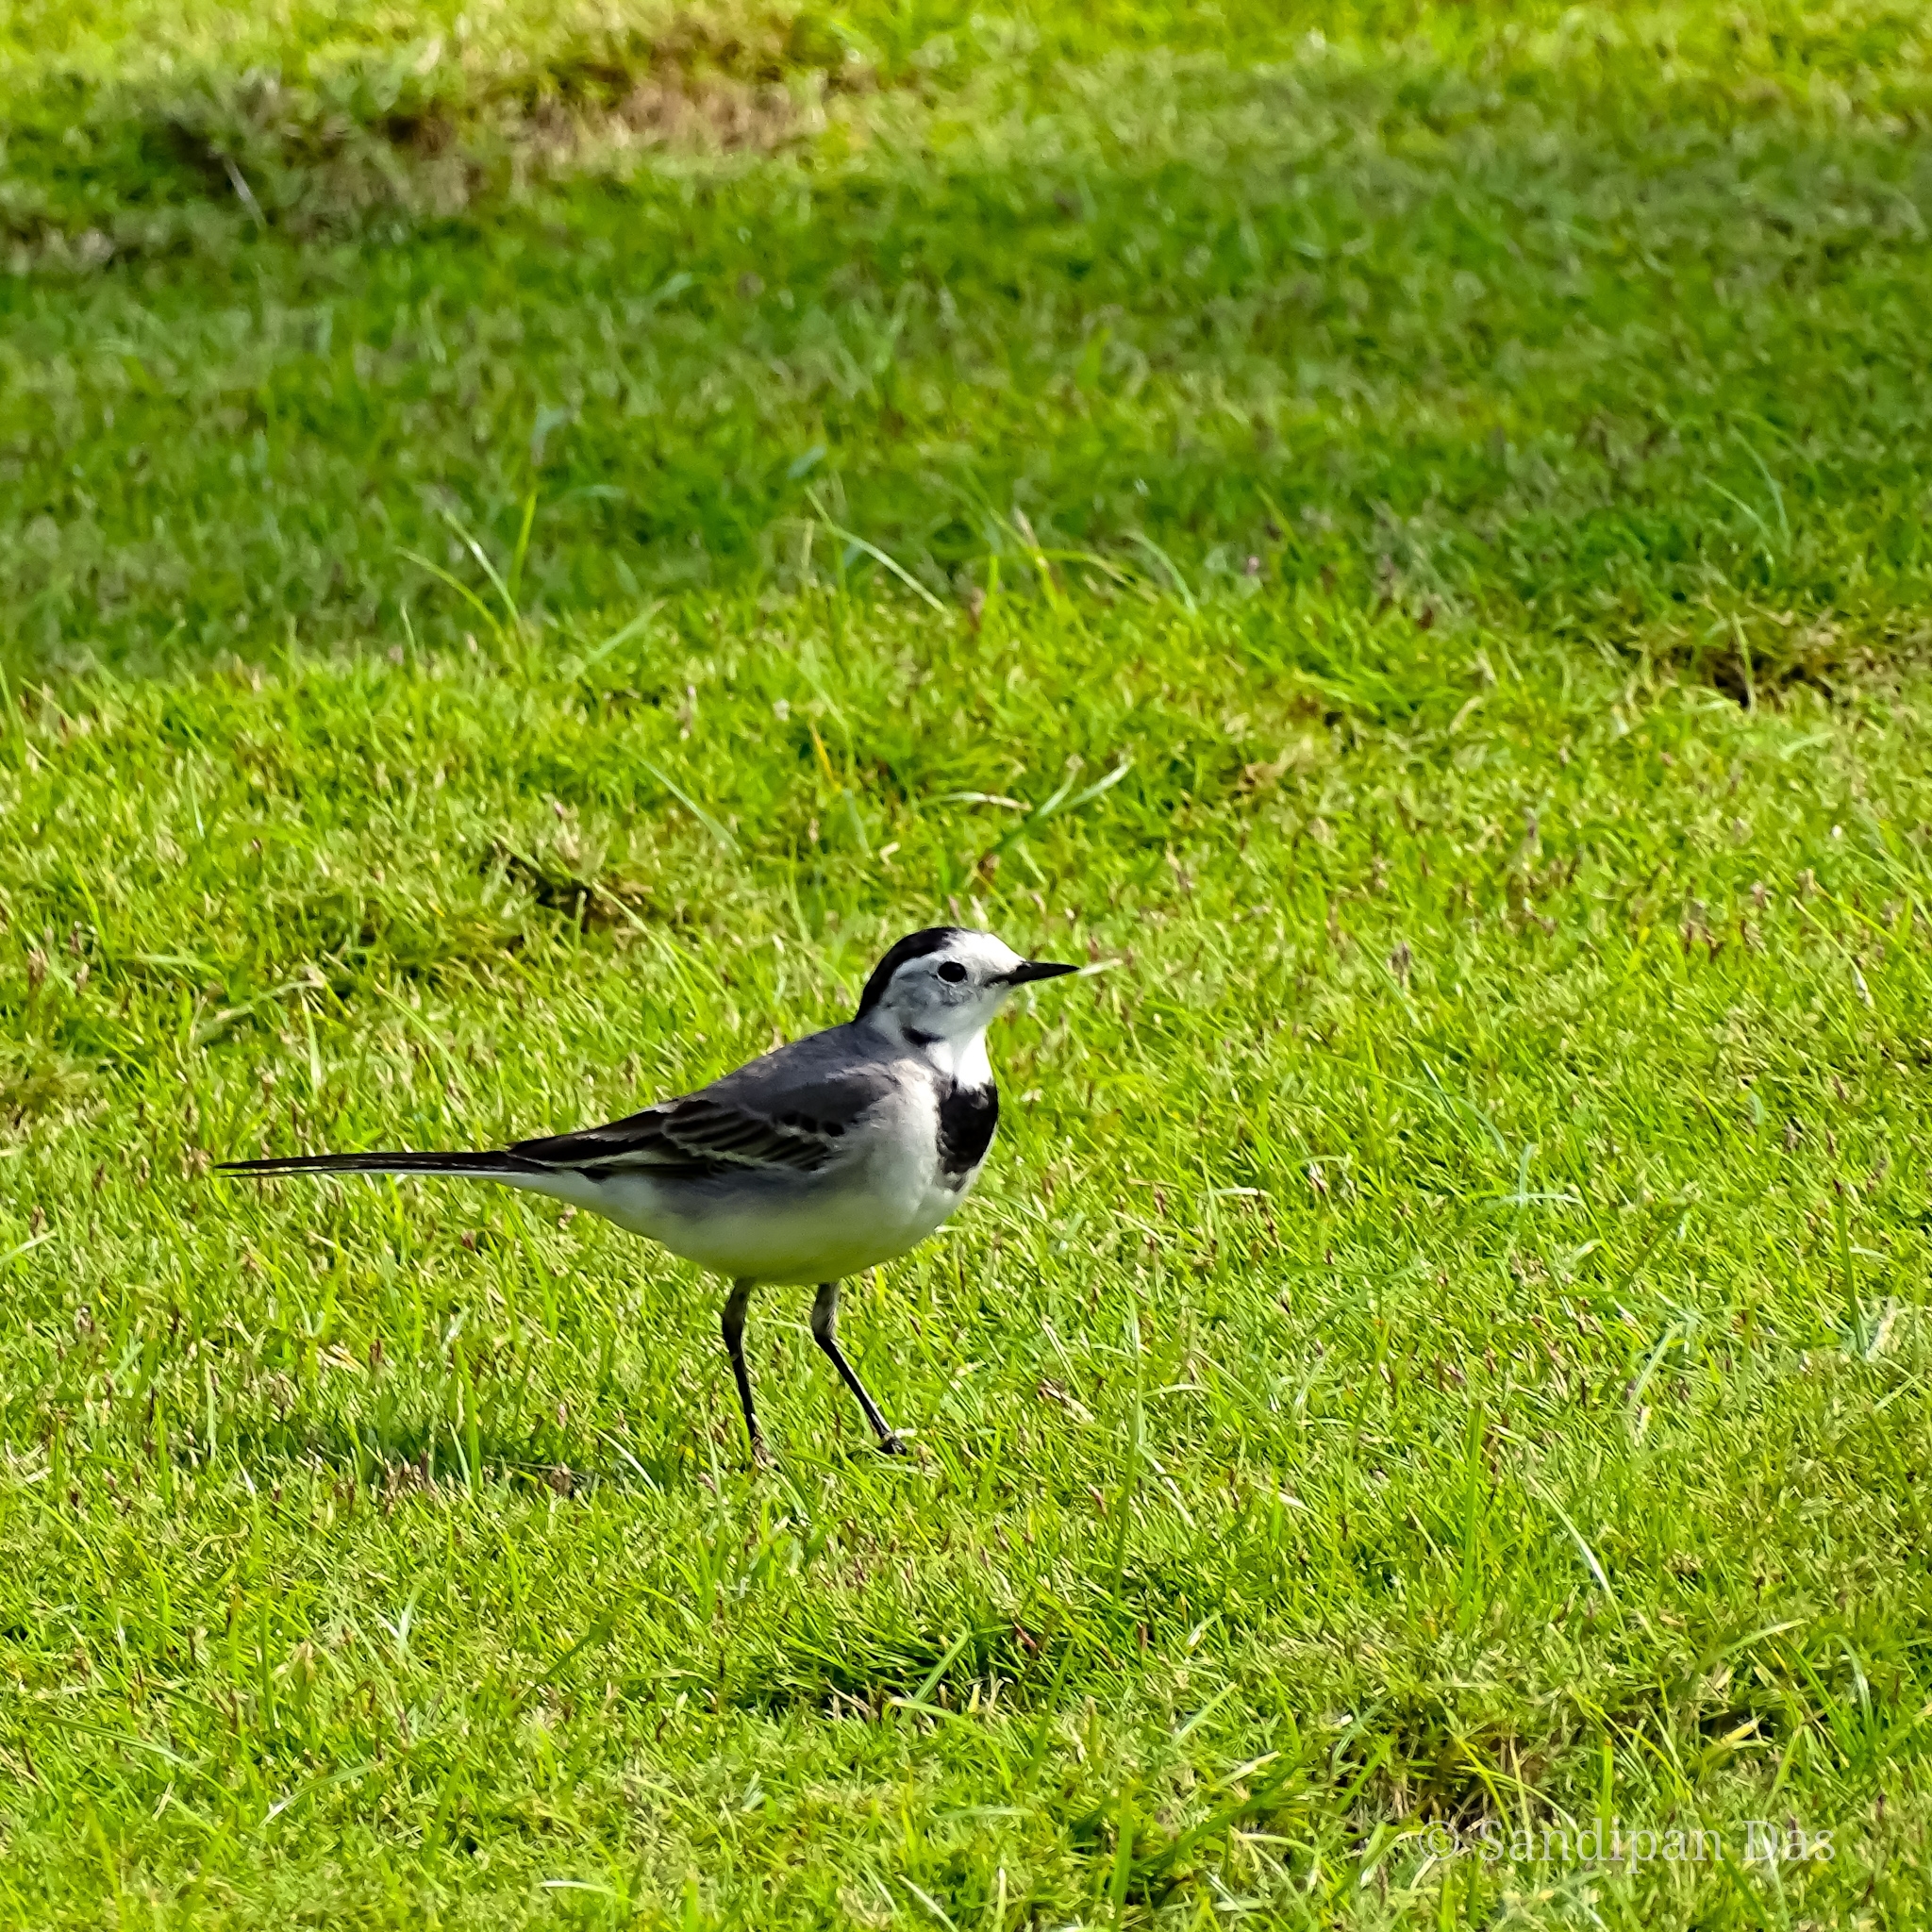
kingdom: Animalia
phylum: Chordata
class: Aves
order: Passeriformes
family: Motacillidae
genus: Motacilla
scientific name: Motacilla alba
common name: White wagtail
